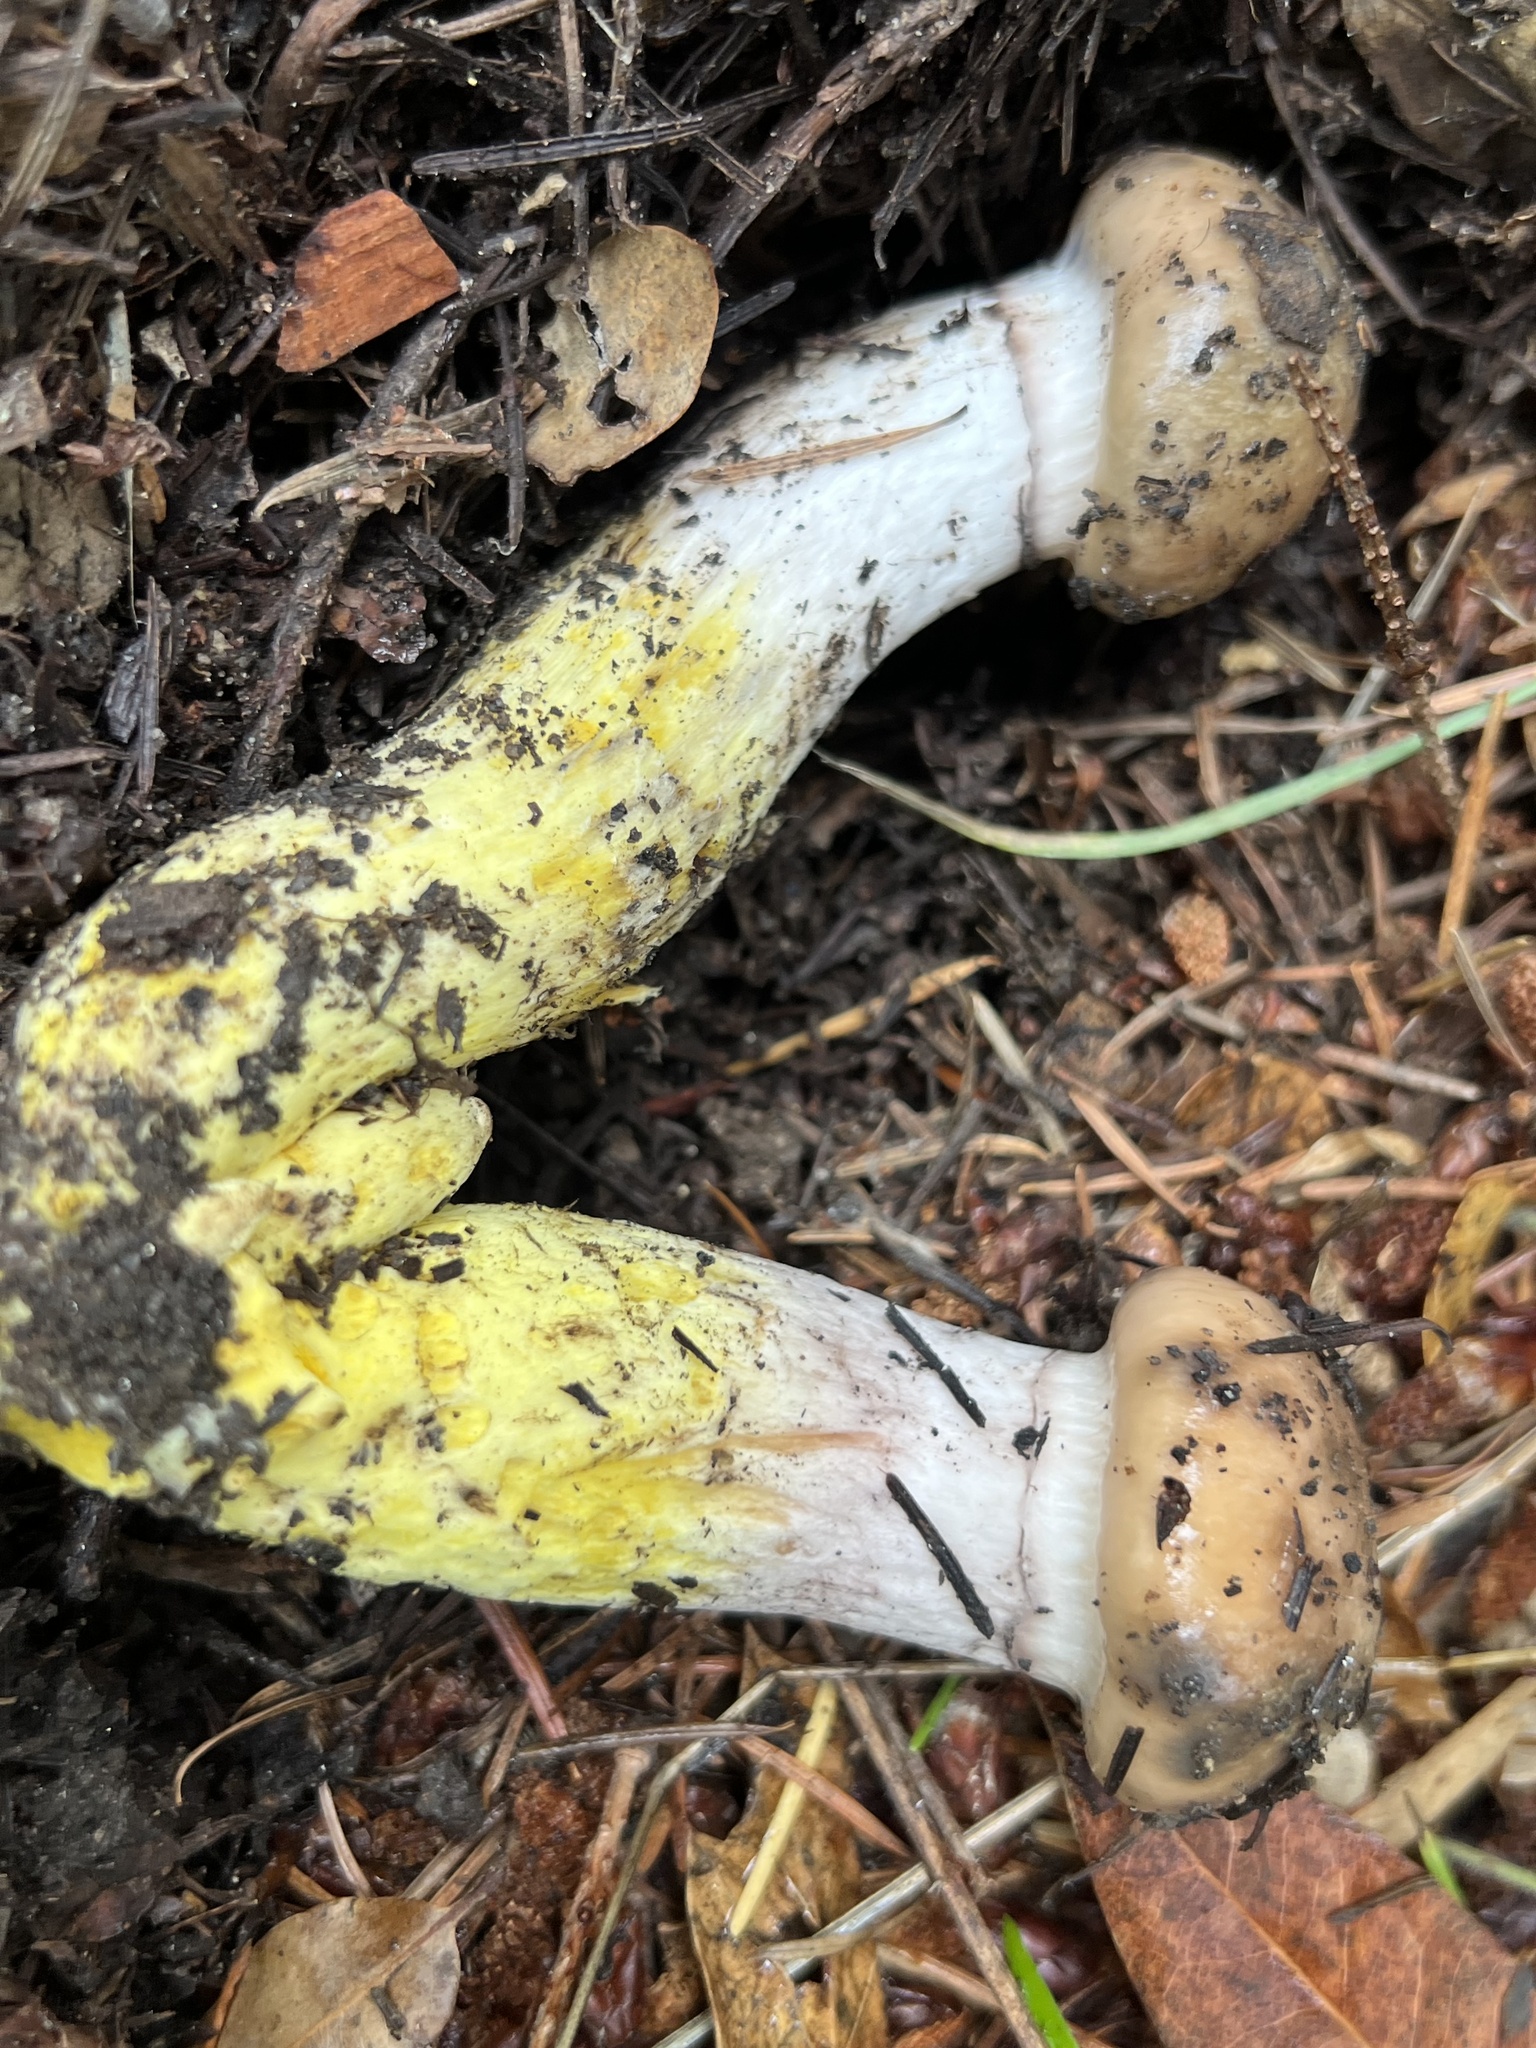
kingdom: Fungi
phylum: Basidiomycota
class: Agaricomycetes
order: Boletales
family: Gomphidiaceae
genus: Gomphidius
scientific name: Gomphidius oregonensis
